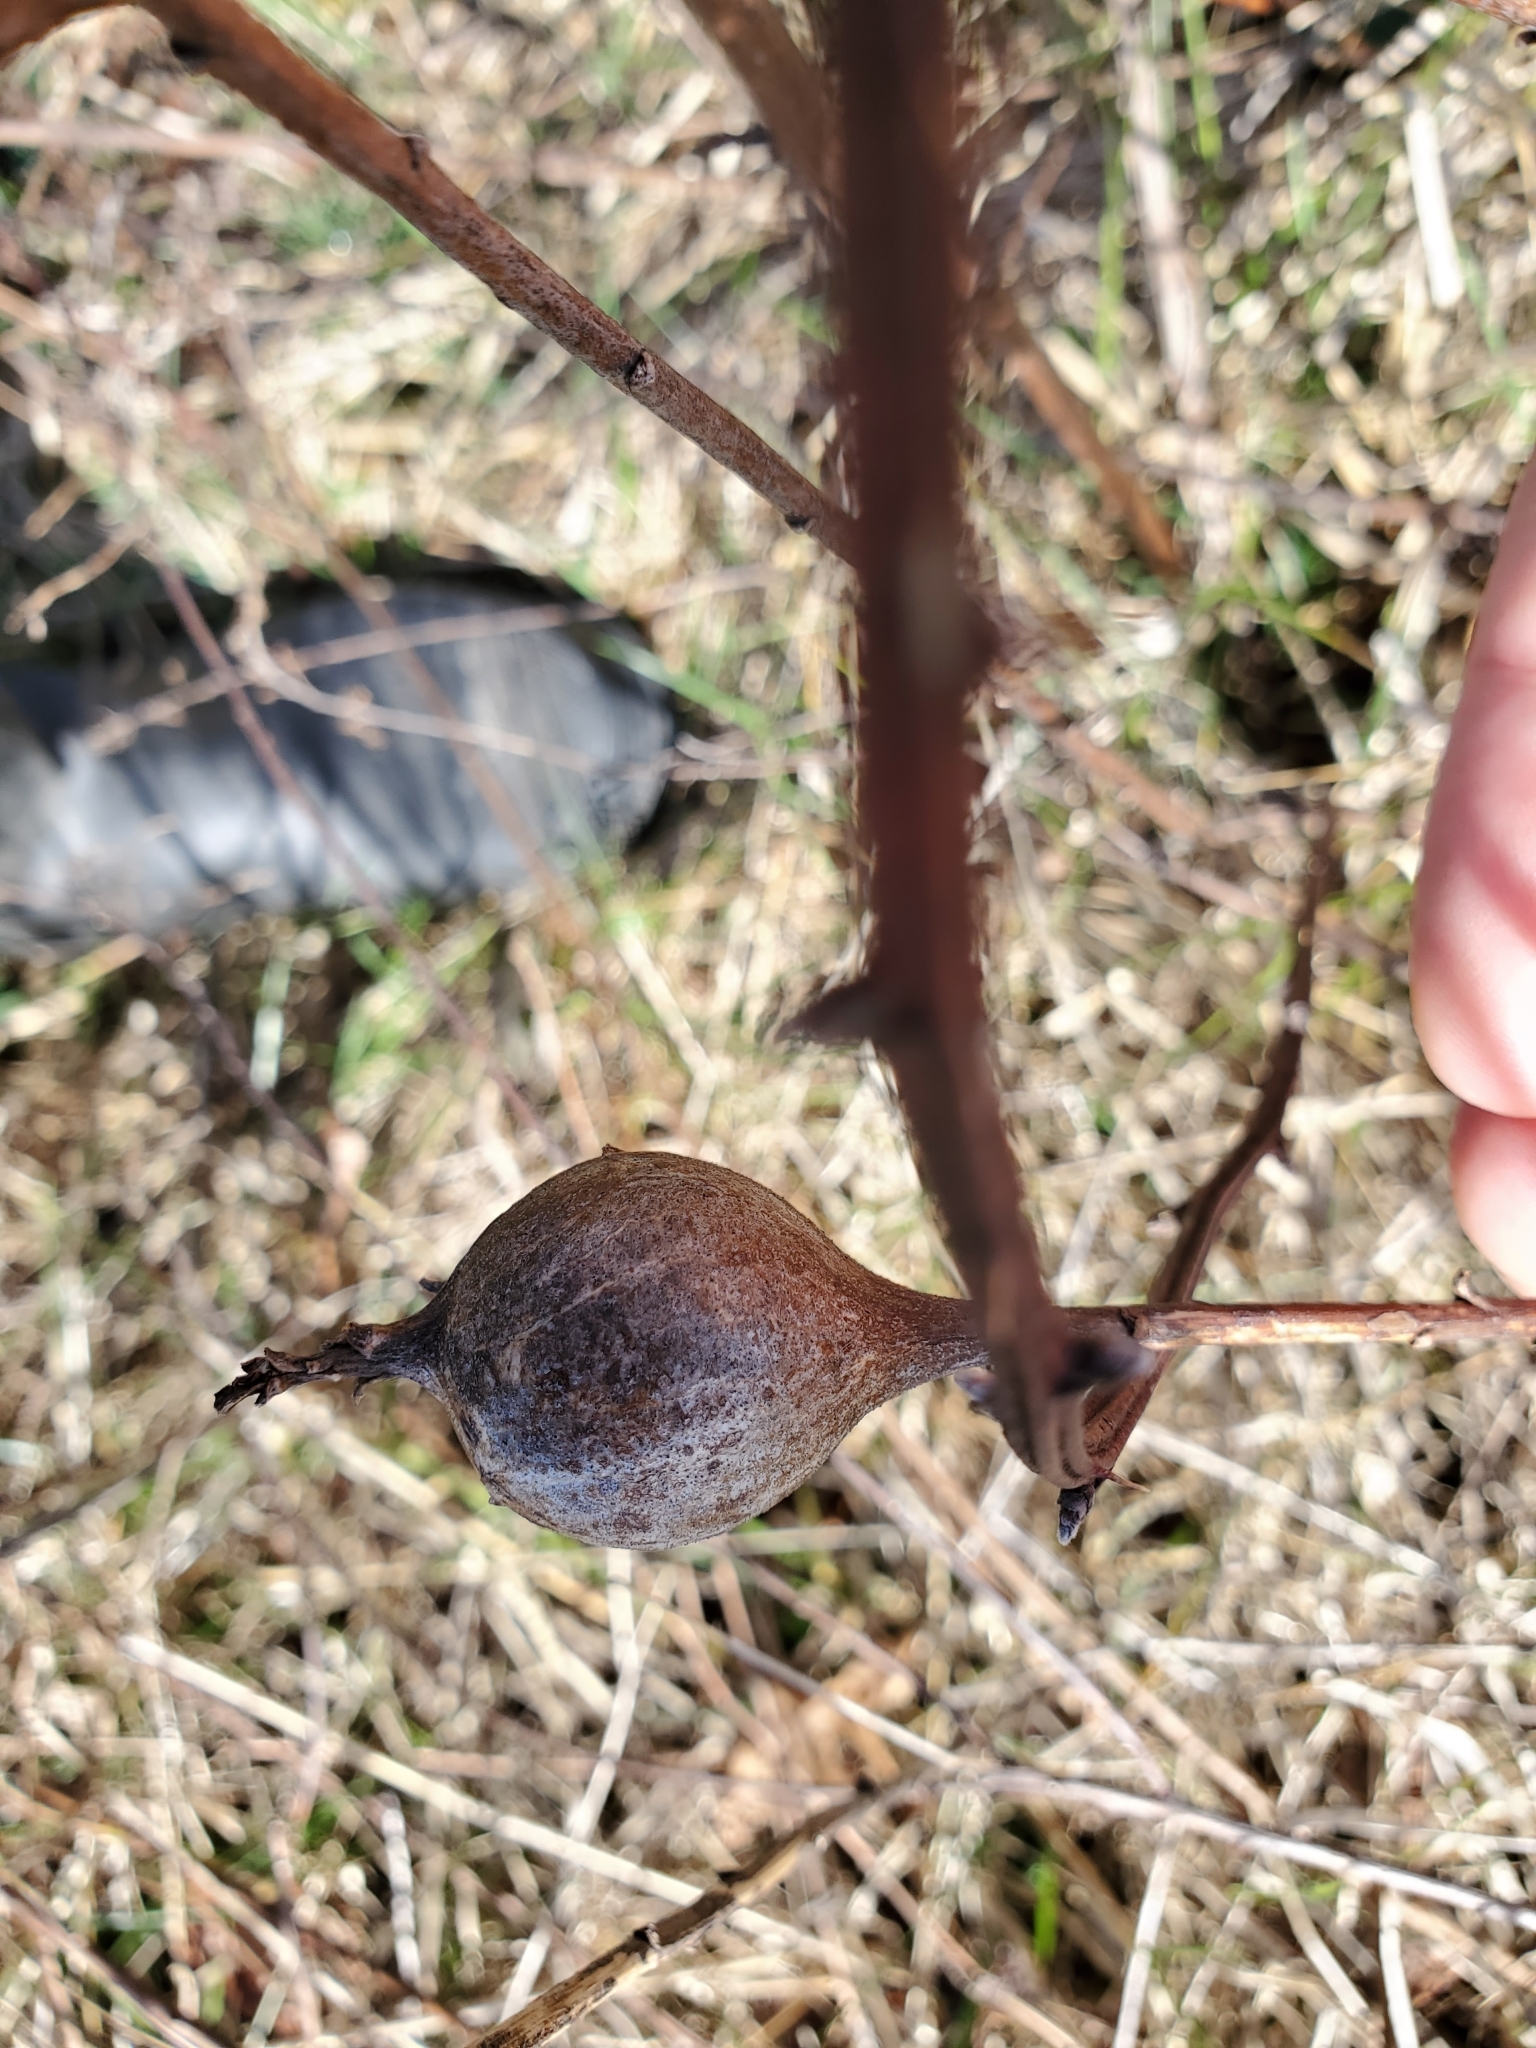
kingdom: Animalia
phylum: Arthropoda
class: Insecta
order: Diptera
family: Tephritidae
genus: Eurosta
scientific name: Eurosta solidaginis
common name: Goldenrod gall fly
